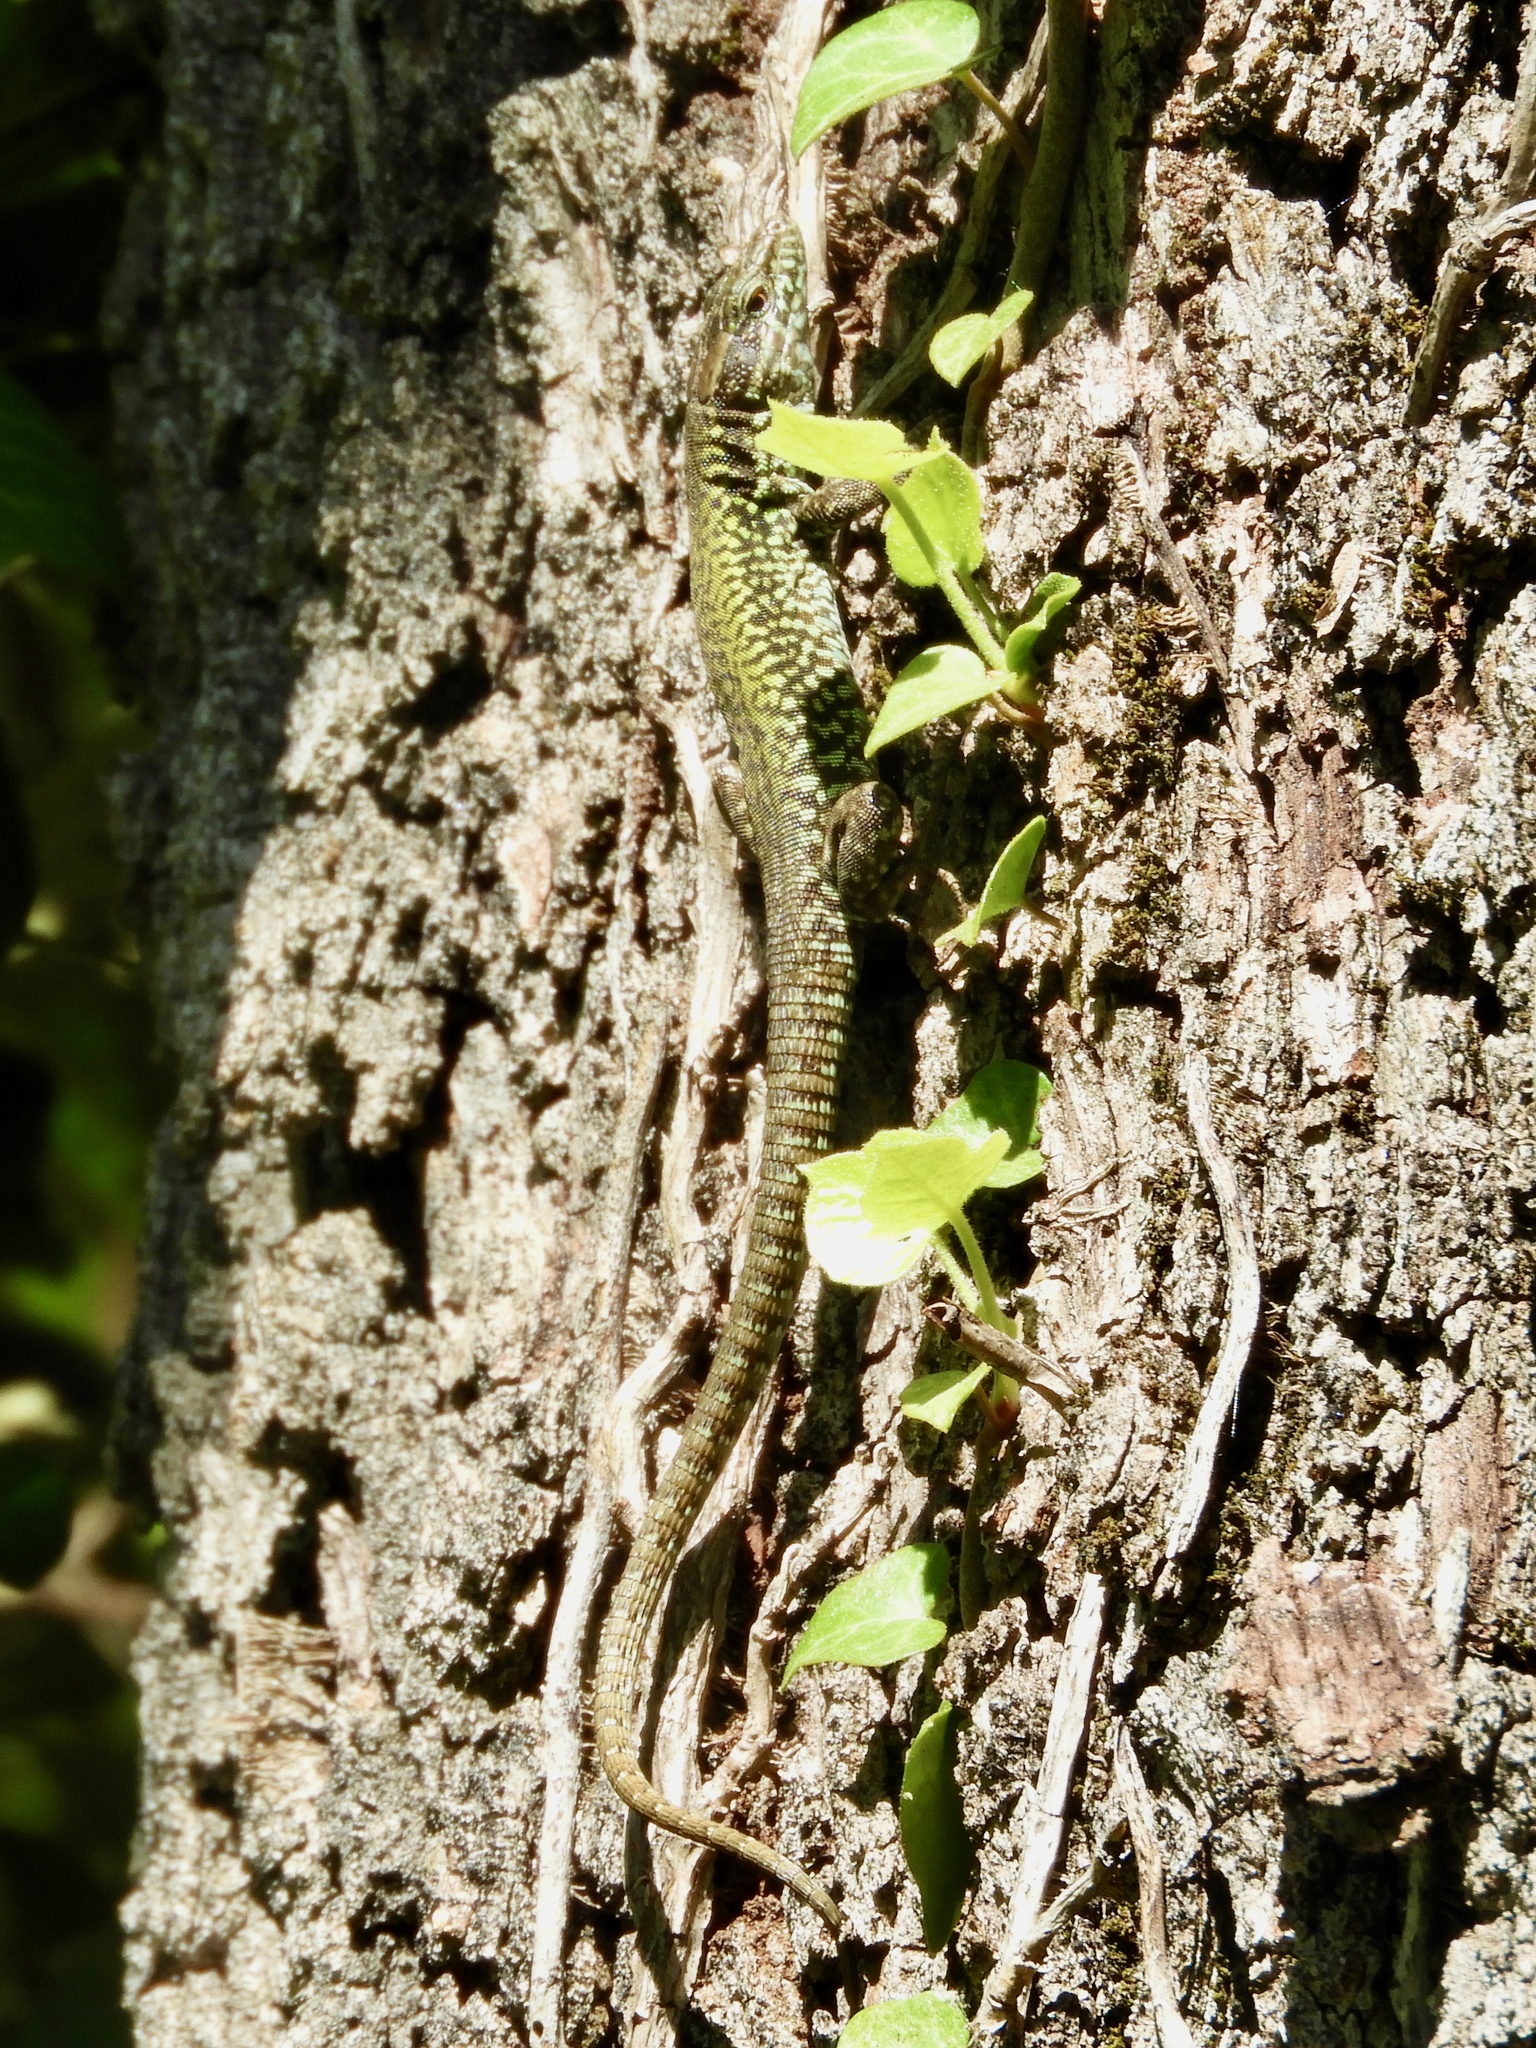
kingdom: Animalia
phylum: Chordata
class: Squamata
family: Lacertidae
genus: Podarcis
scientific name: Podarcis muralis
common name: Common wall lizard
